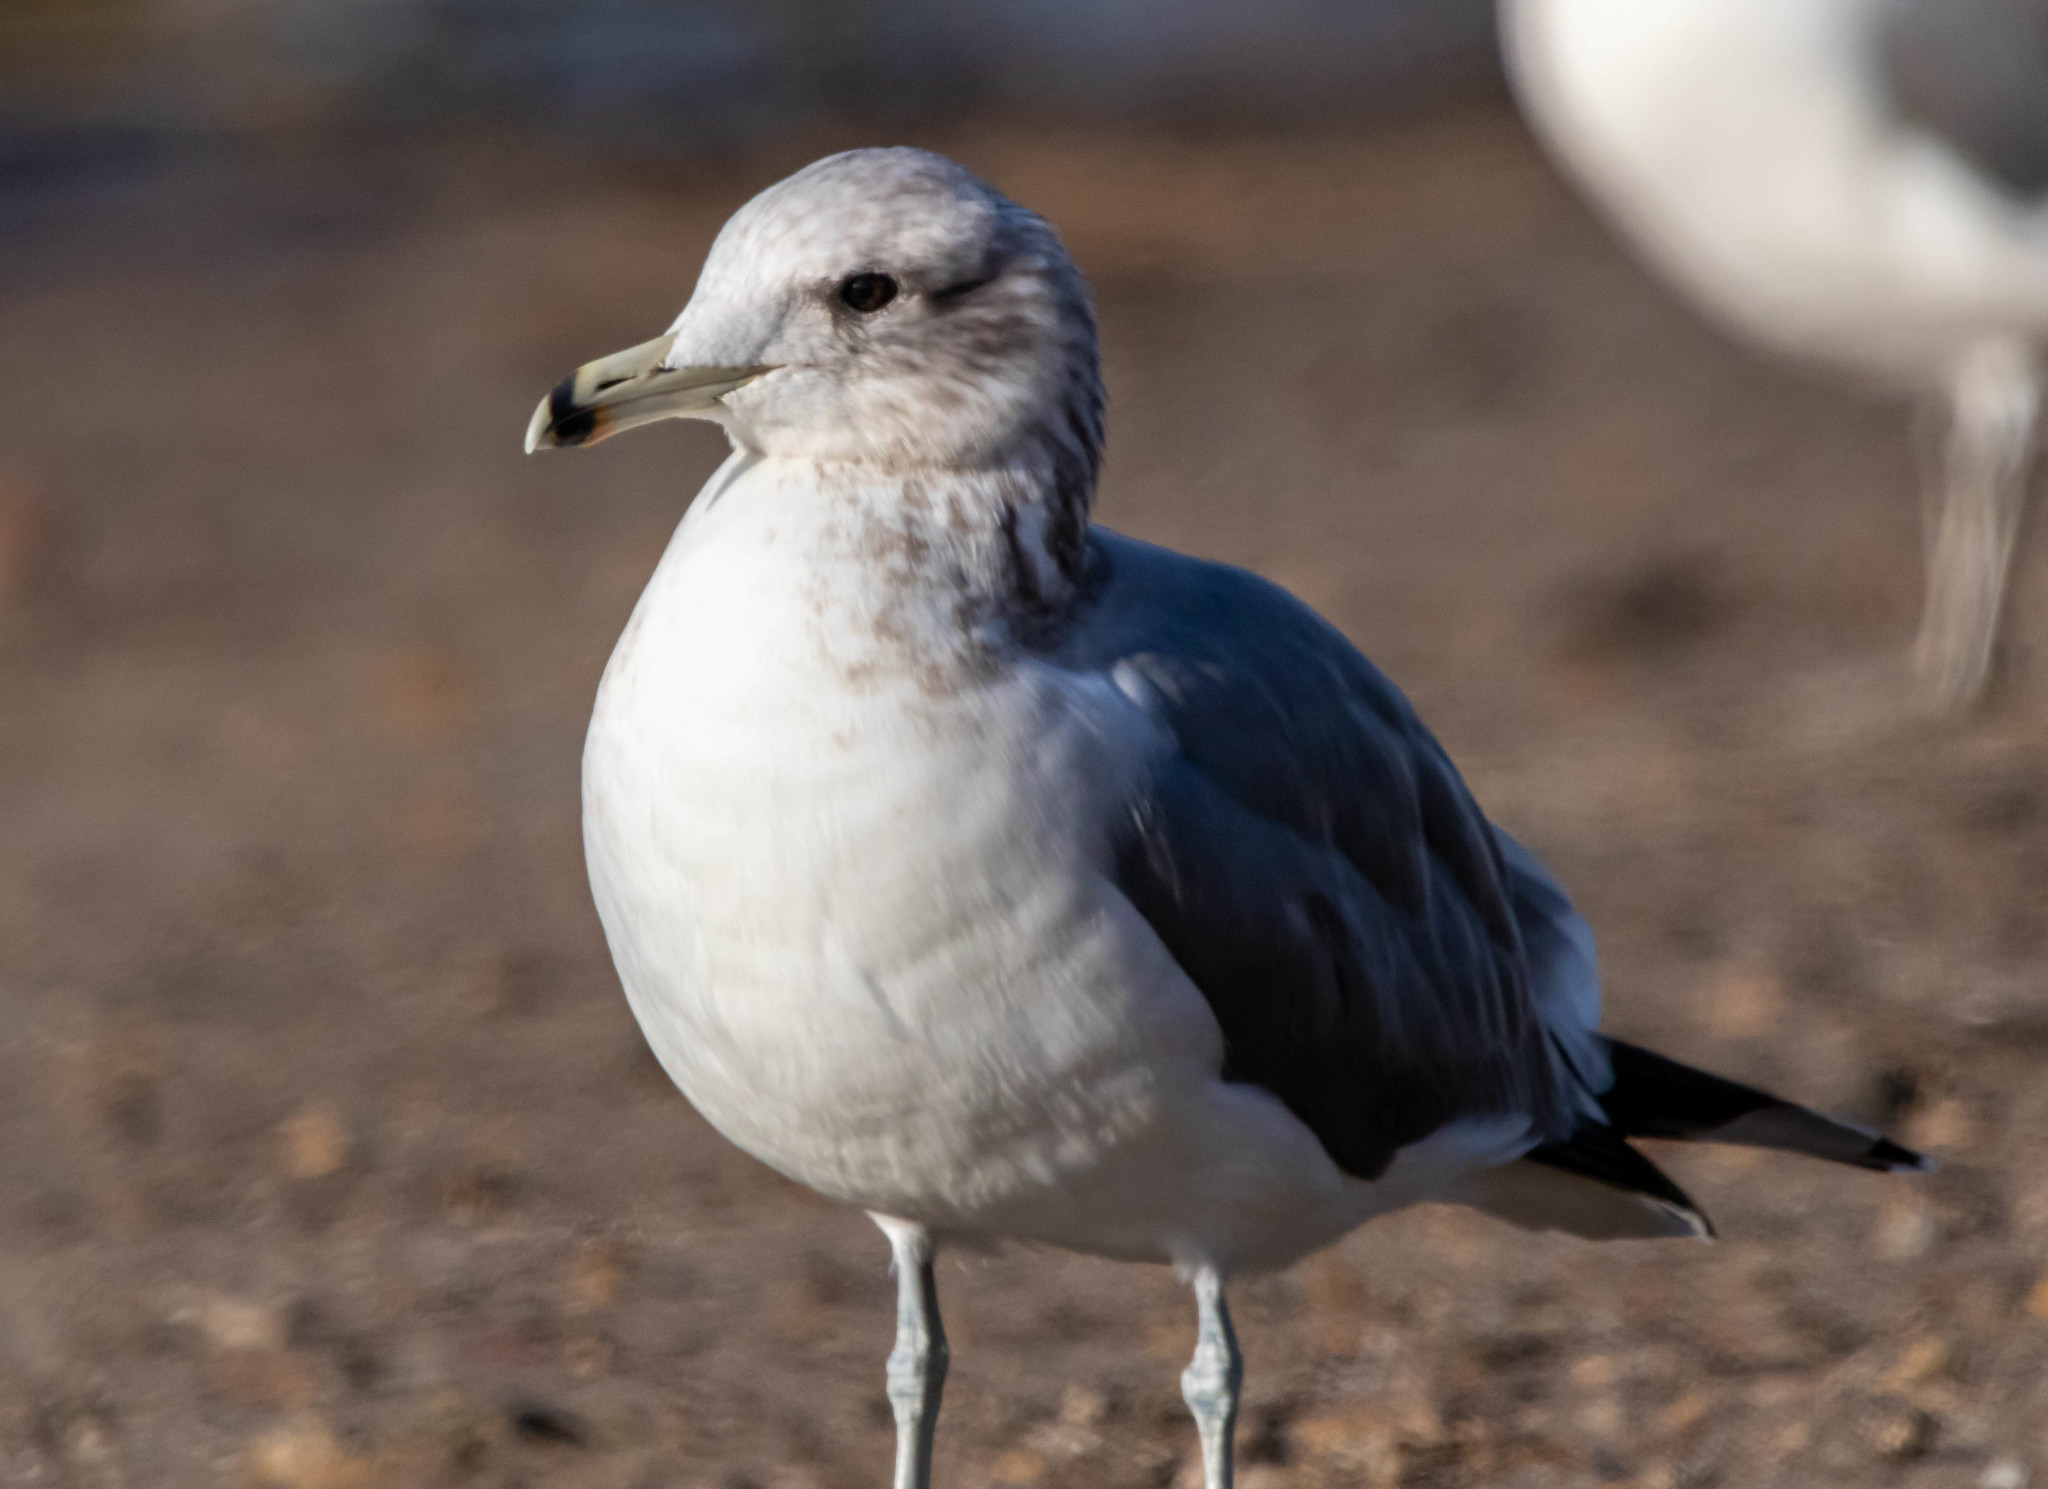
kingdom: Animalia
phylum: Chordata
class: Aves
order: Charadriiformes
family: Laridae
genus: Larus
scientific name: Larus californicus
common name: California gull
